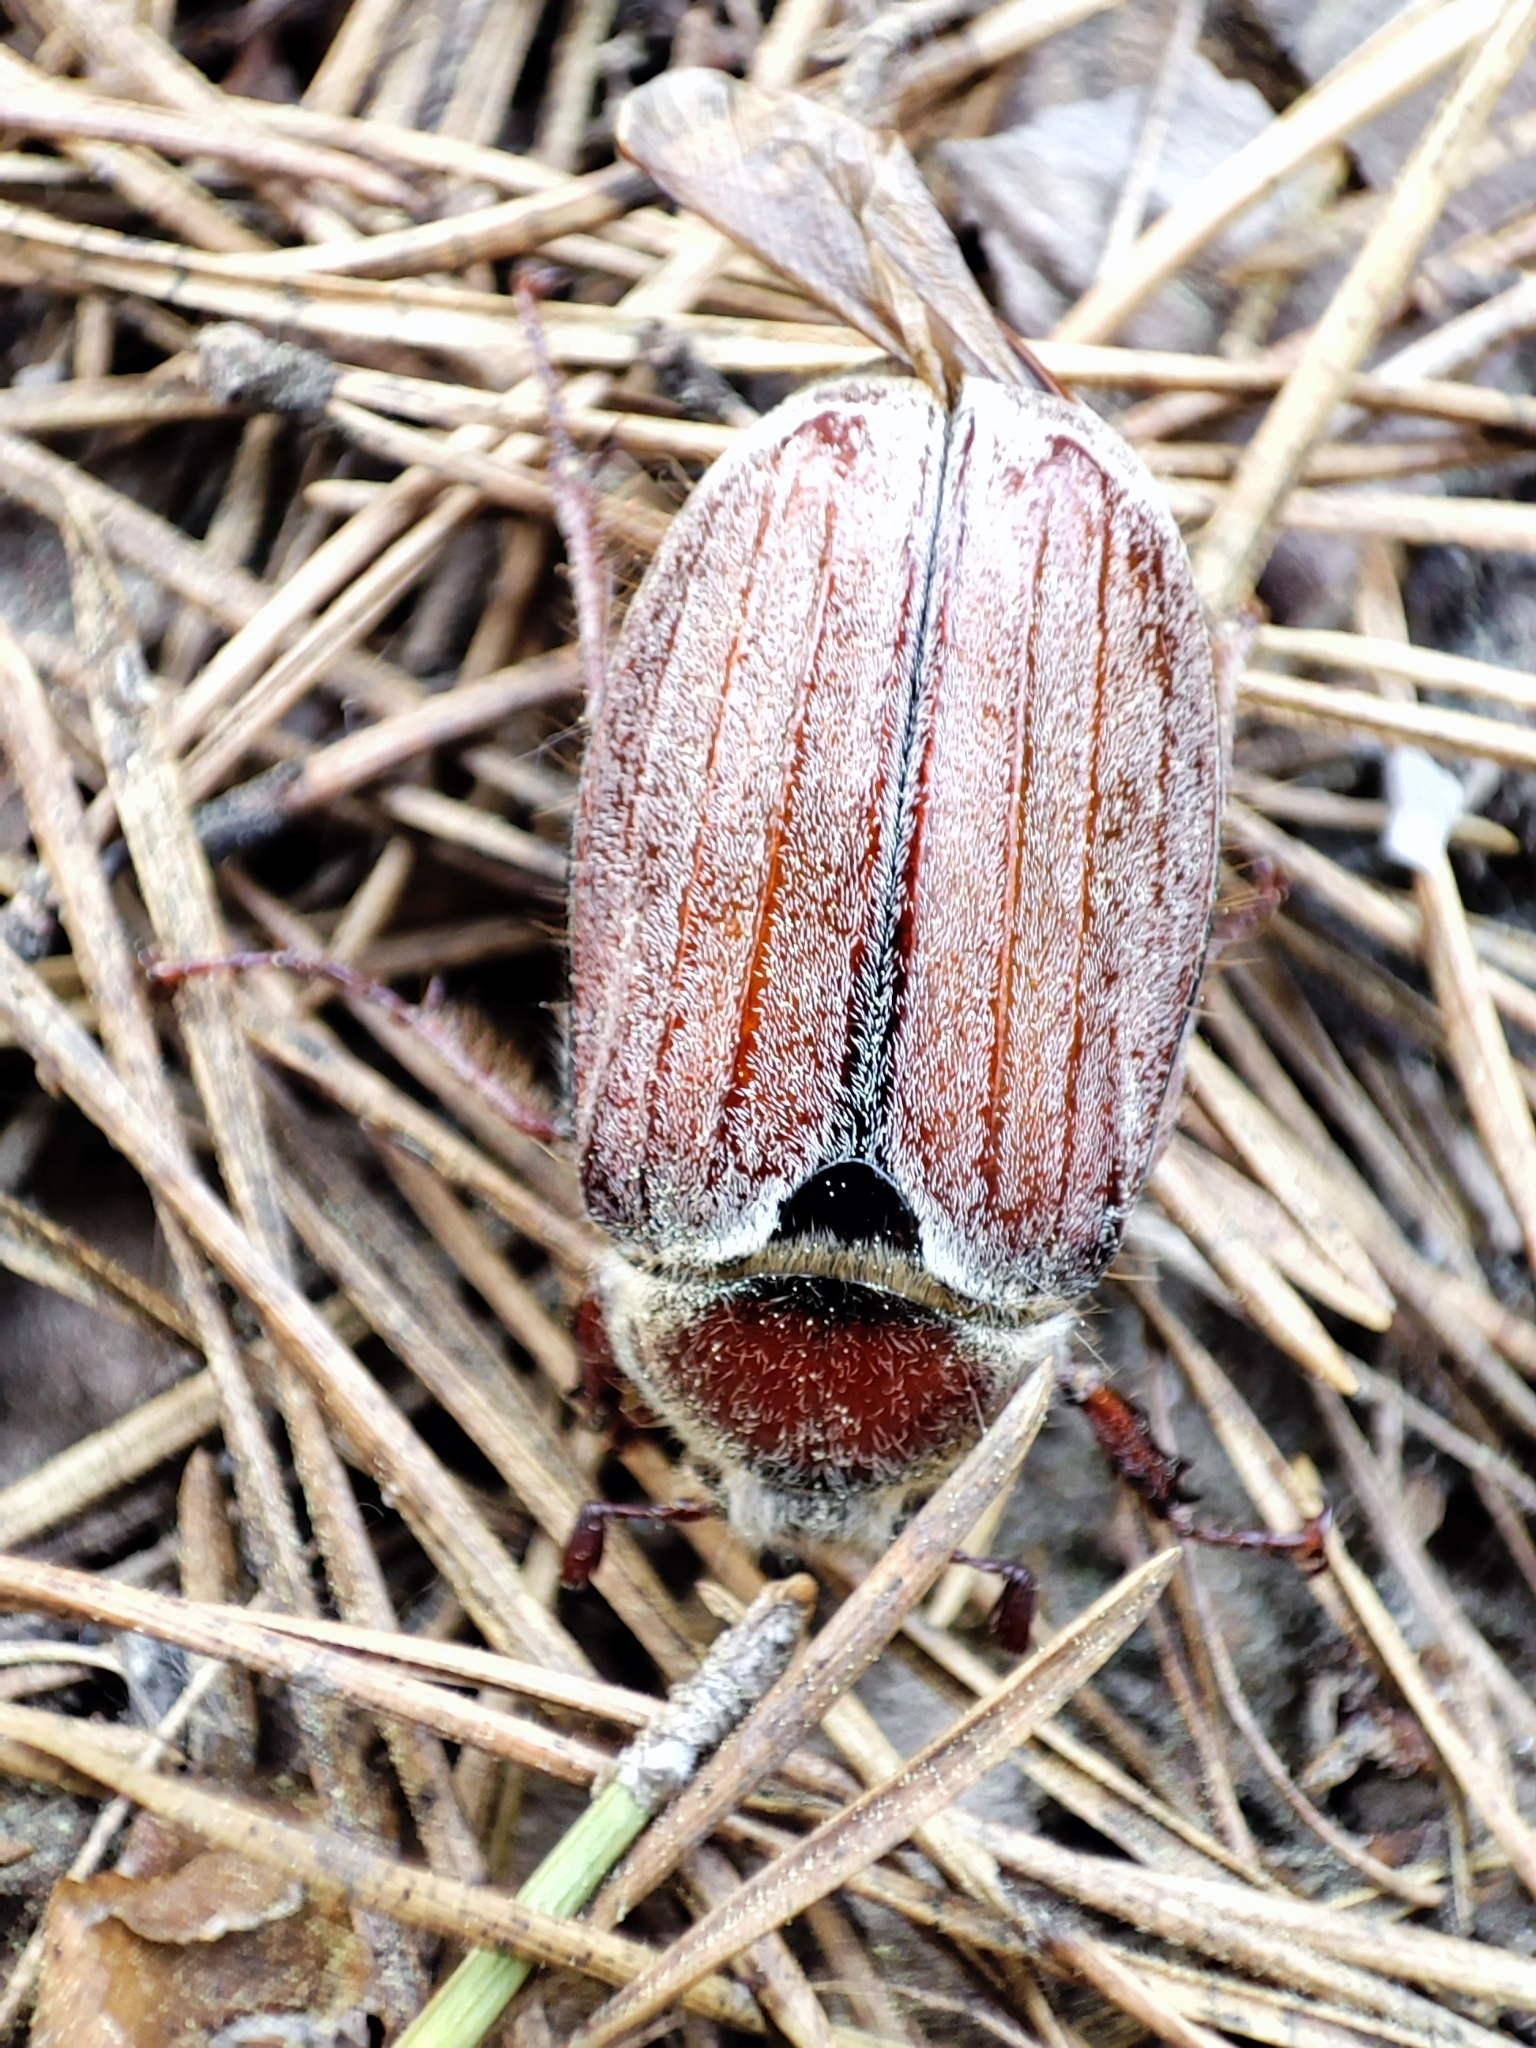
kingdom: Animalia
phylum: Arthropoda
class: Insecta
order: Coleoptera
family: Scarabaeidae
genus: Melolontha
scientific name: Melolontha hippocastani
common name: Chestnut cockchafer
